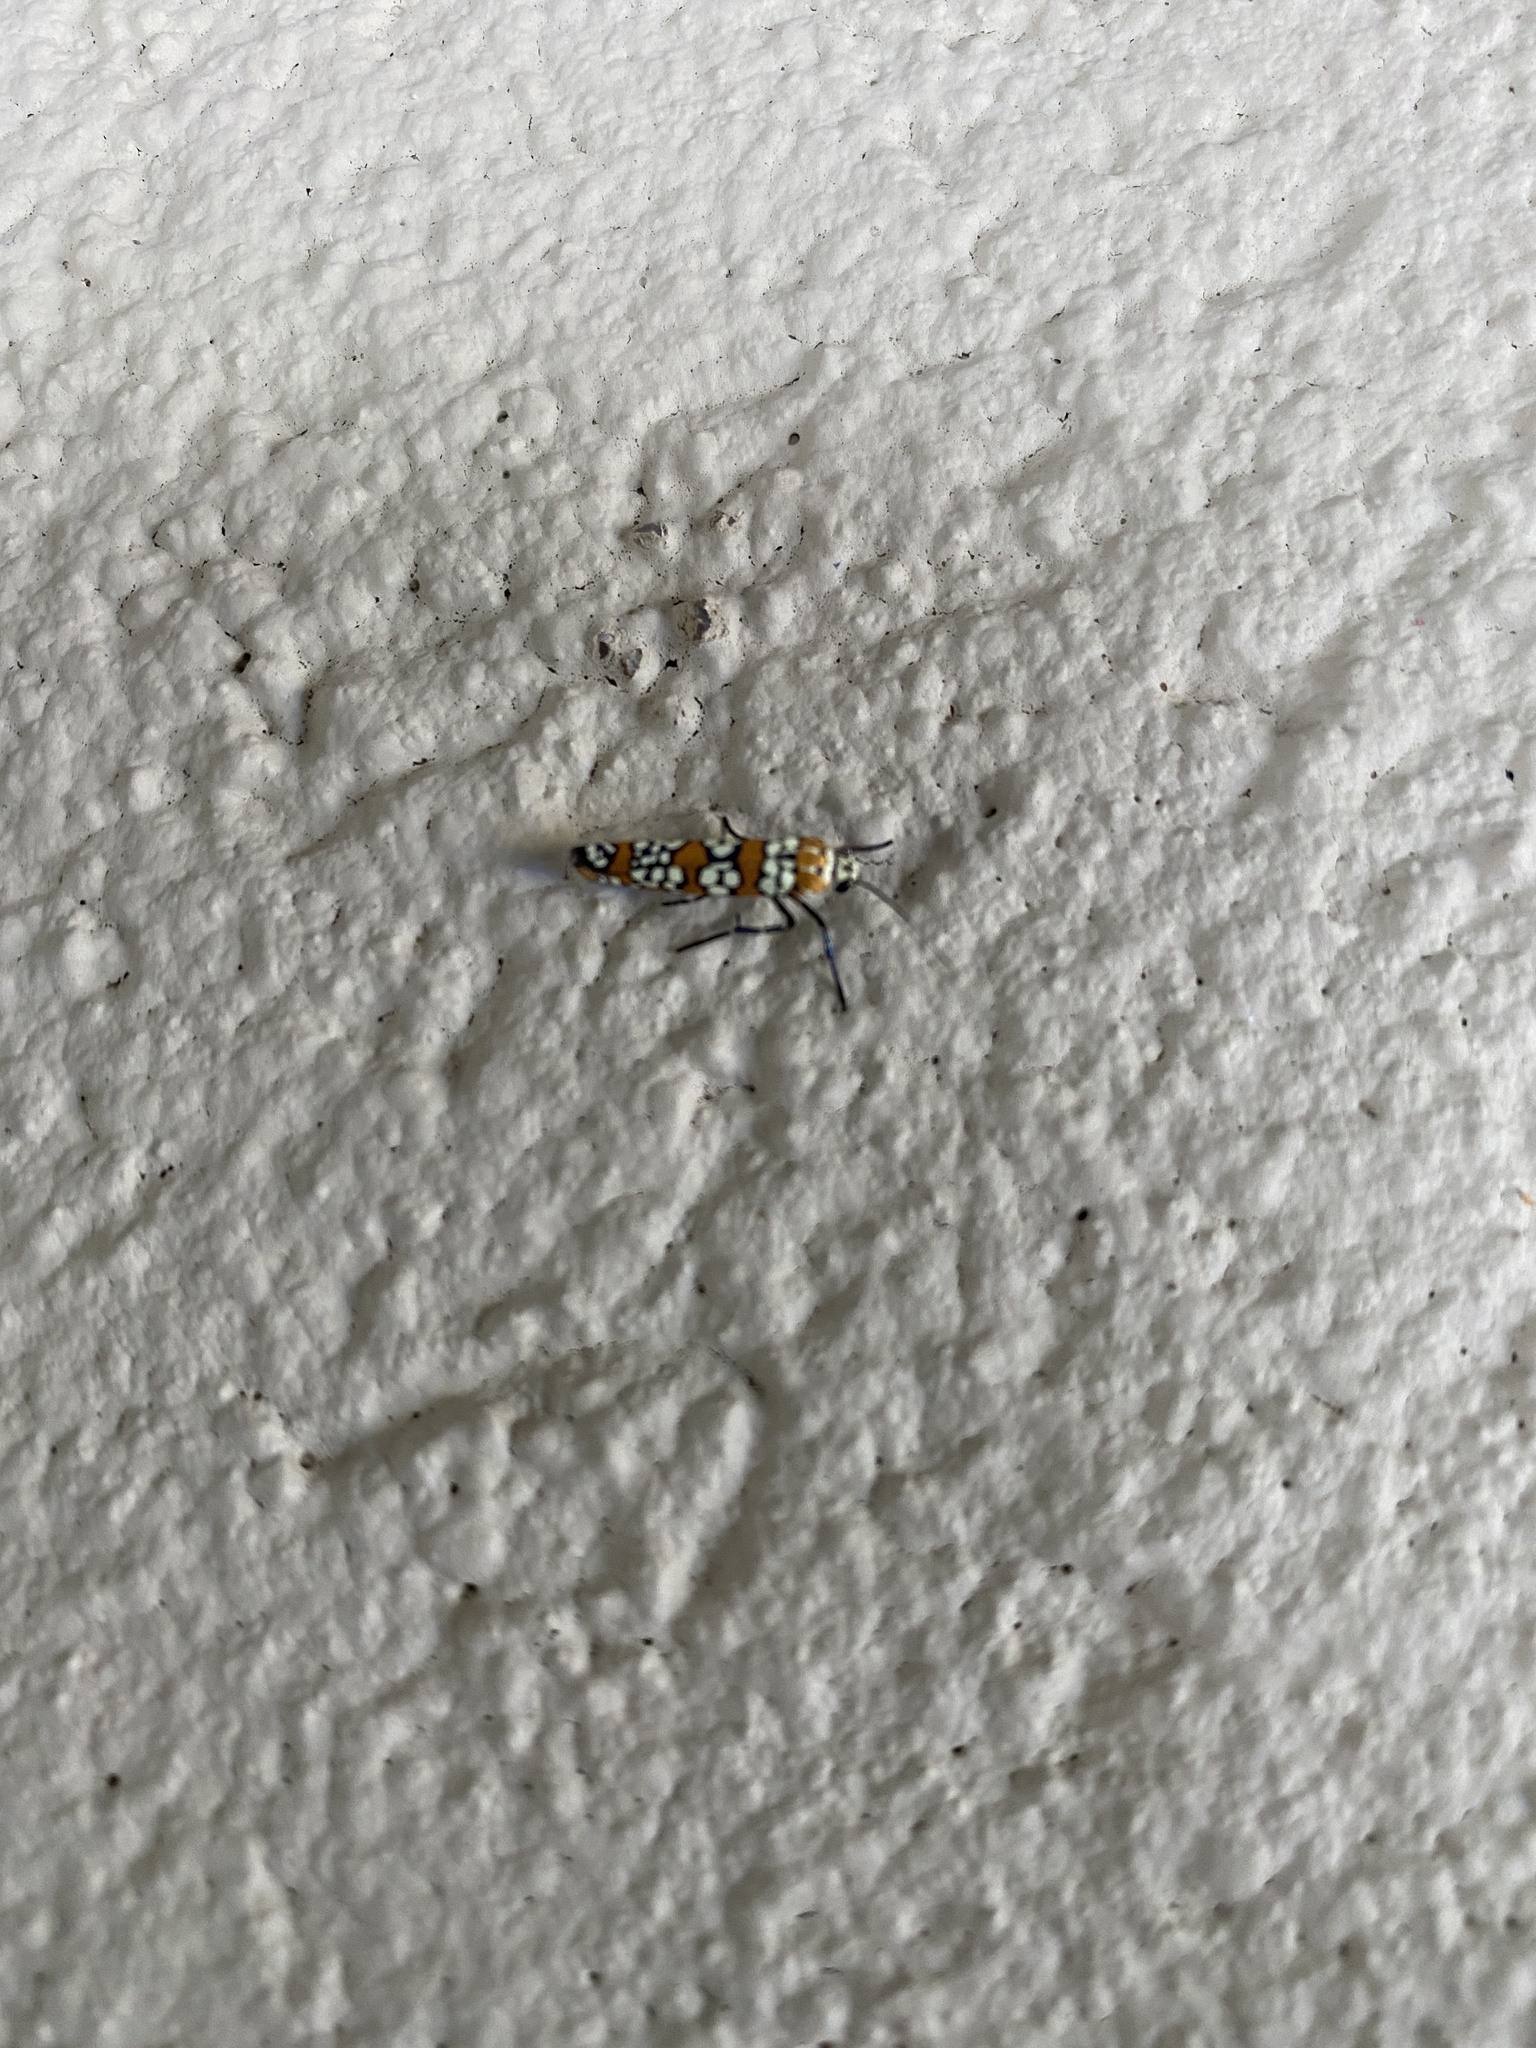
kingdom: Animalia
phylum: Arthropoda
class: Insecta
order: Lepidoptera
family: Attevidae
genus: Atteva
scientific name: Atteva punctella
